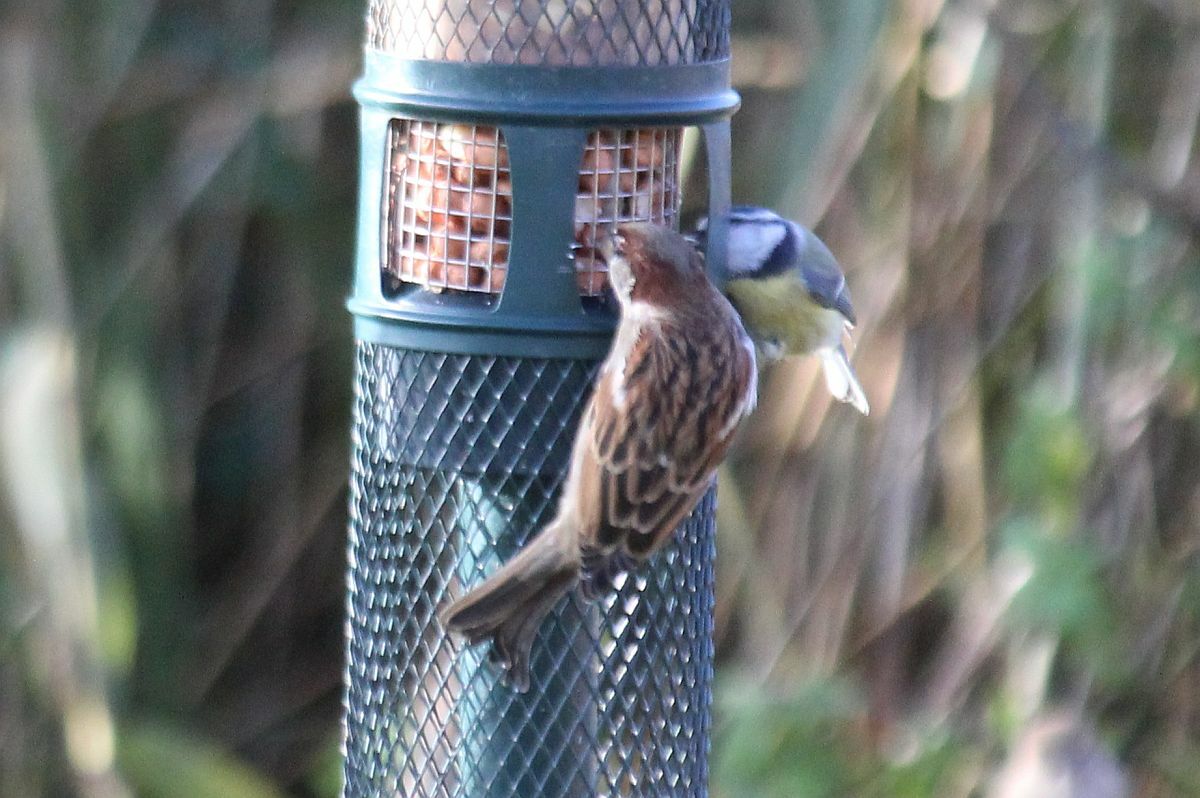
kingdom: Animalia
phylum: Chordata
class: Aves
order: Passeriformes
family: Passeridae
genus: Passer
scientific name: Passer domesticus
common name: House sparrow
